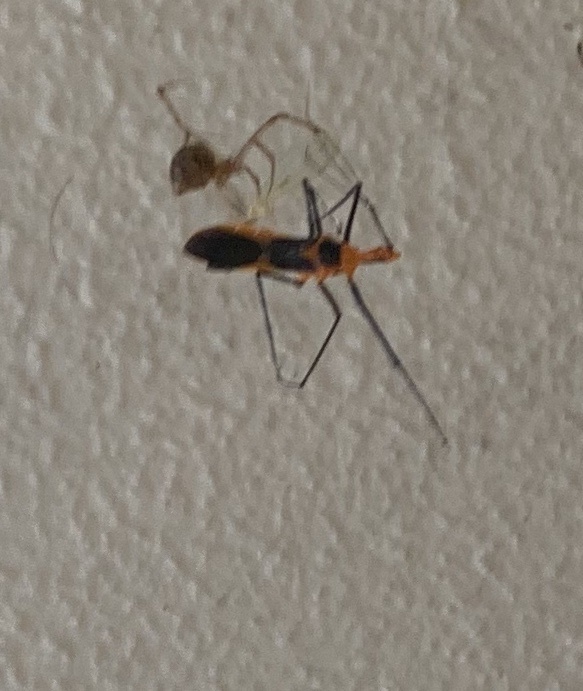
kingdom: Animalia
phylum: Arthropoda
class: Insecta
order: Hemiptera
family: Reduviidae
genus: Zelus
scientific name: Zelus longipes
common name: Milkweed assassin bug
